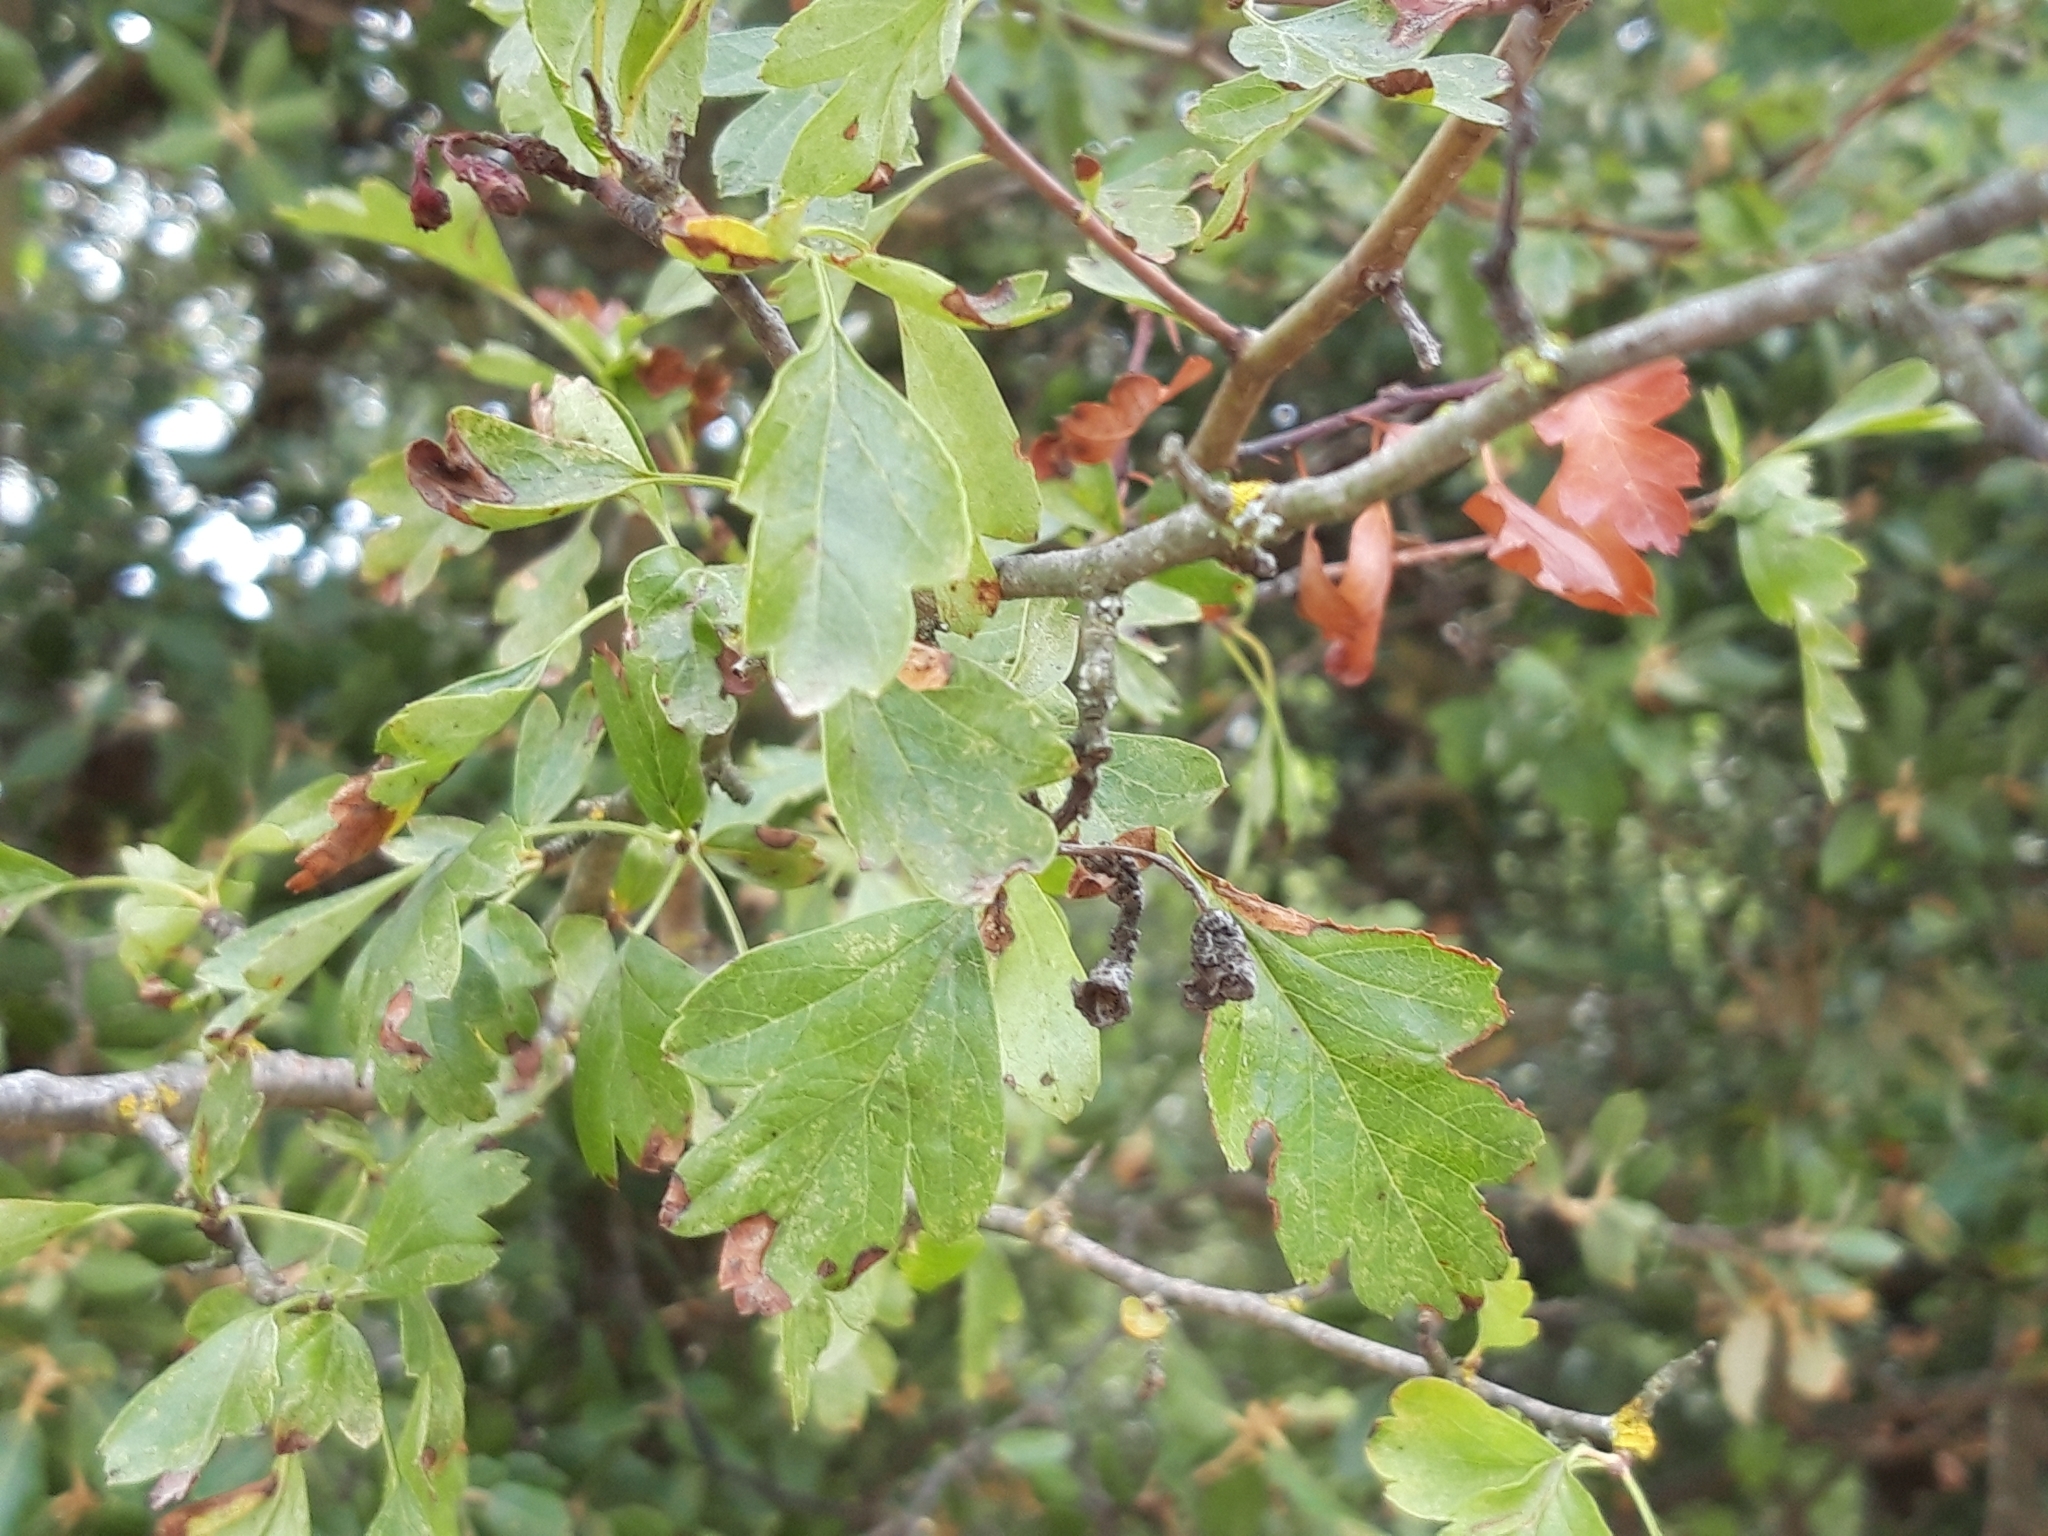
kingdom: Plantae
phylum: Tracheophyta
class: Magnoliopsida
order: Rosales
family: Rosaceae
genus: Crataegus
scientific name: Crataegus monogyna
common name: Hawthorn
